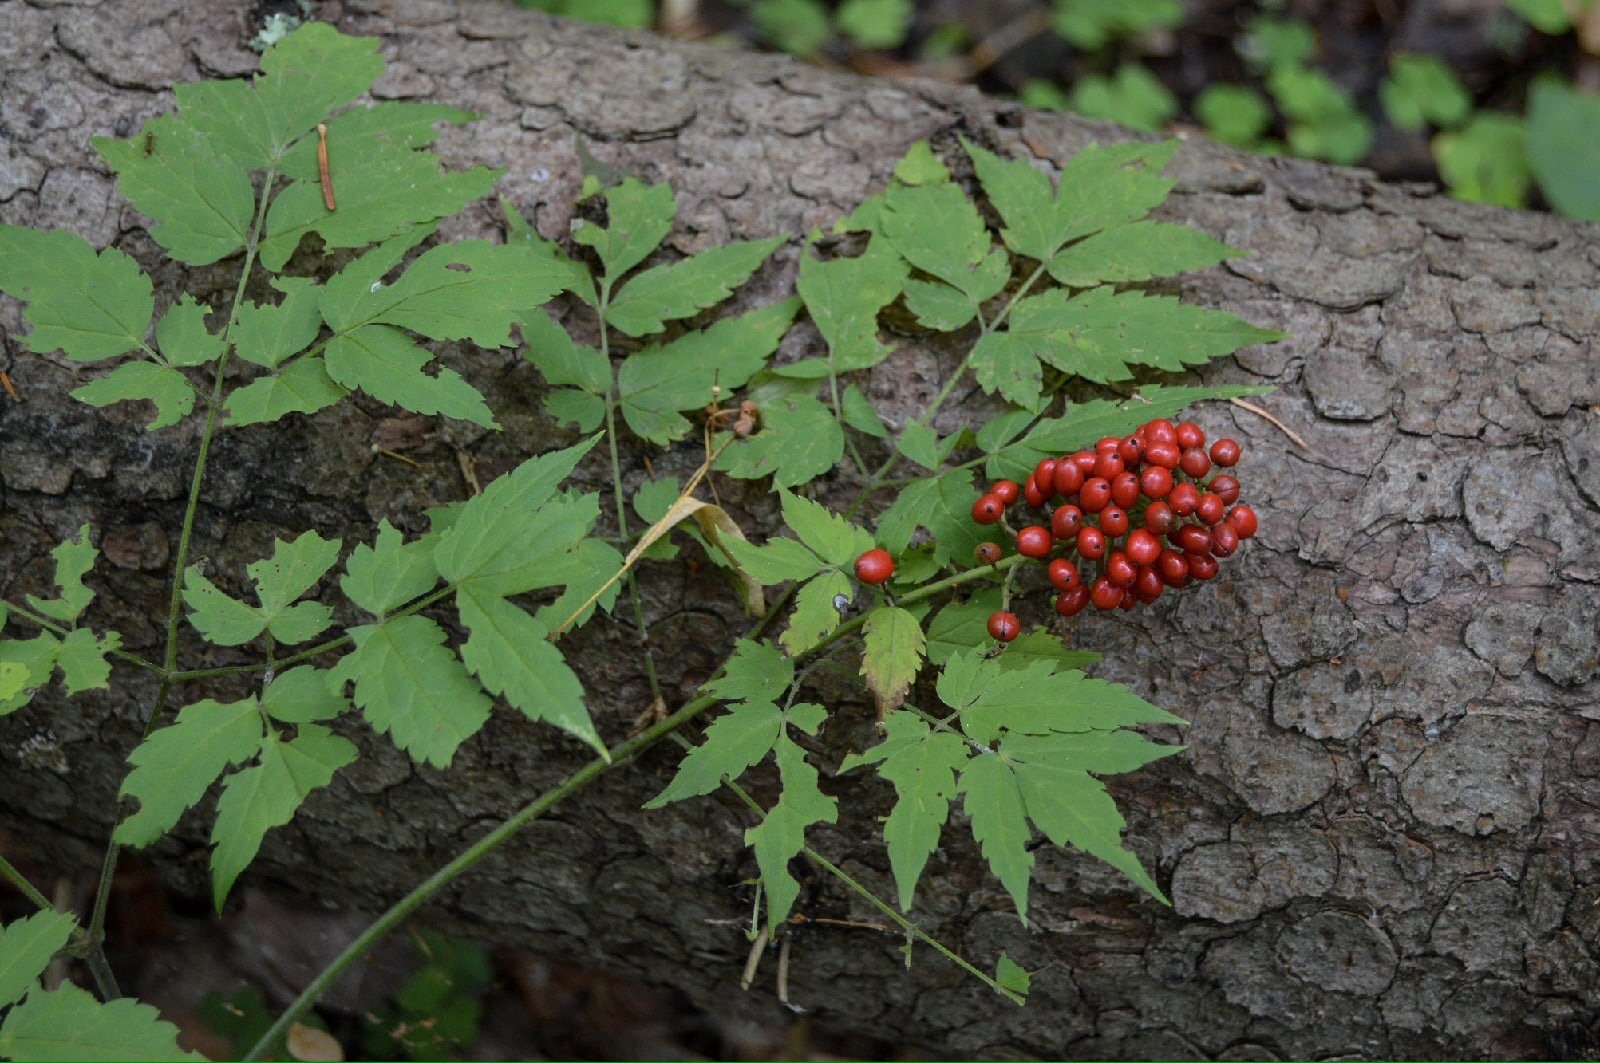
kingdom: Plantae
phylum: Tracheophyta
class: Magnoliopsida
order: Ranunculales
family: Ranunculaceae
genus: Actaea
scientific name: Actaea erythrocarpa
